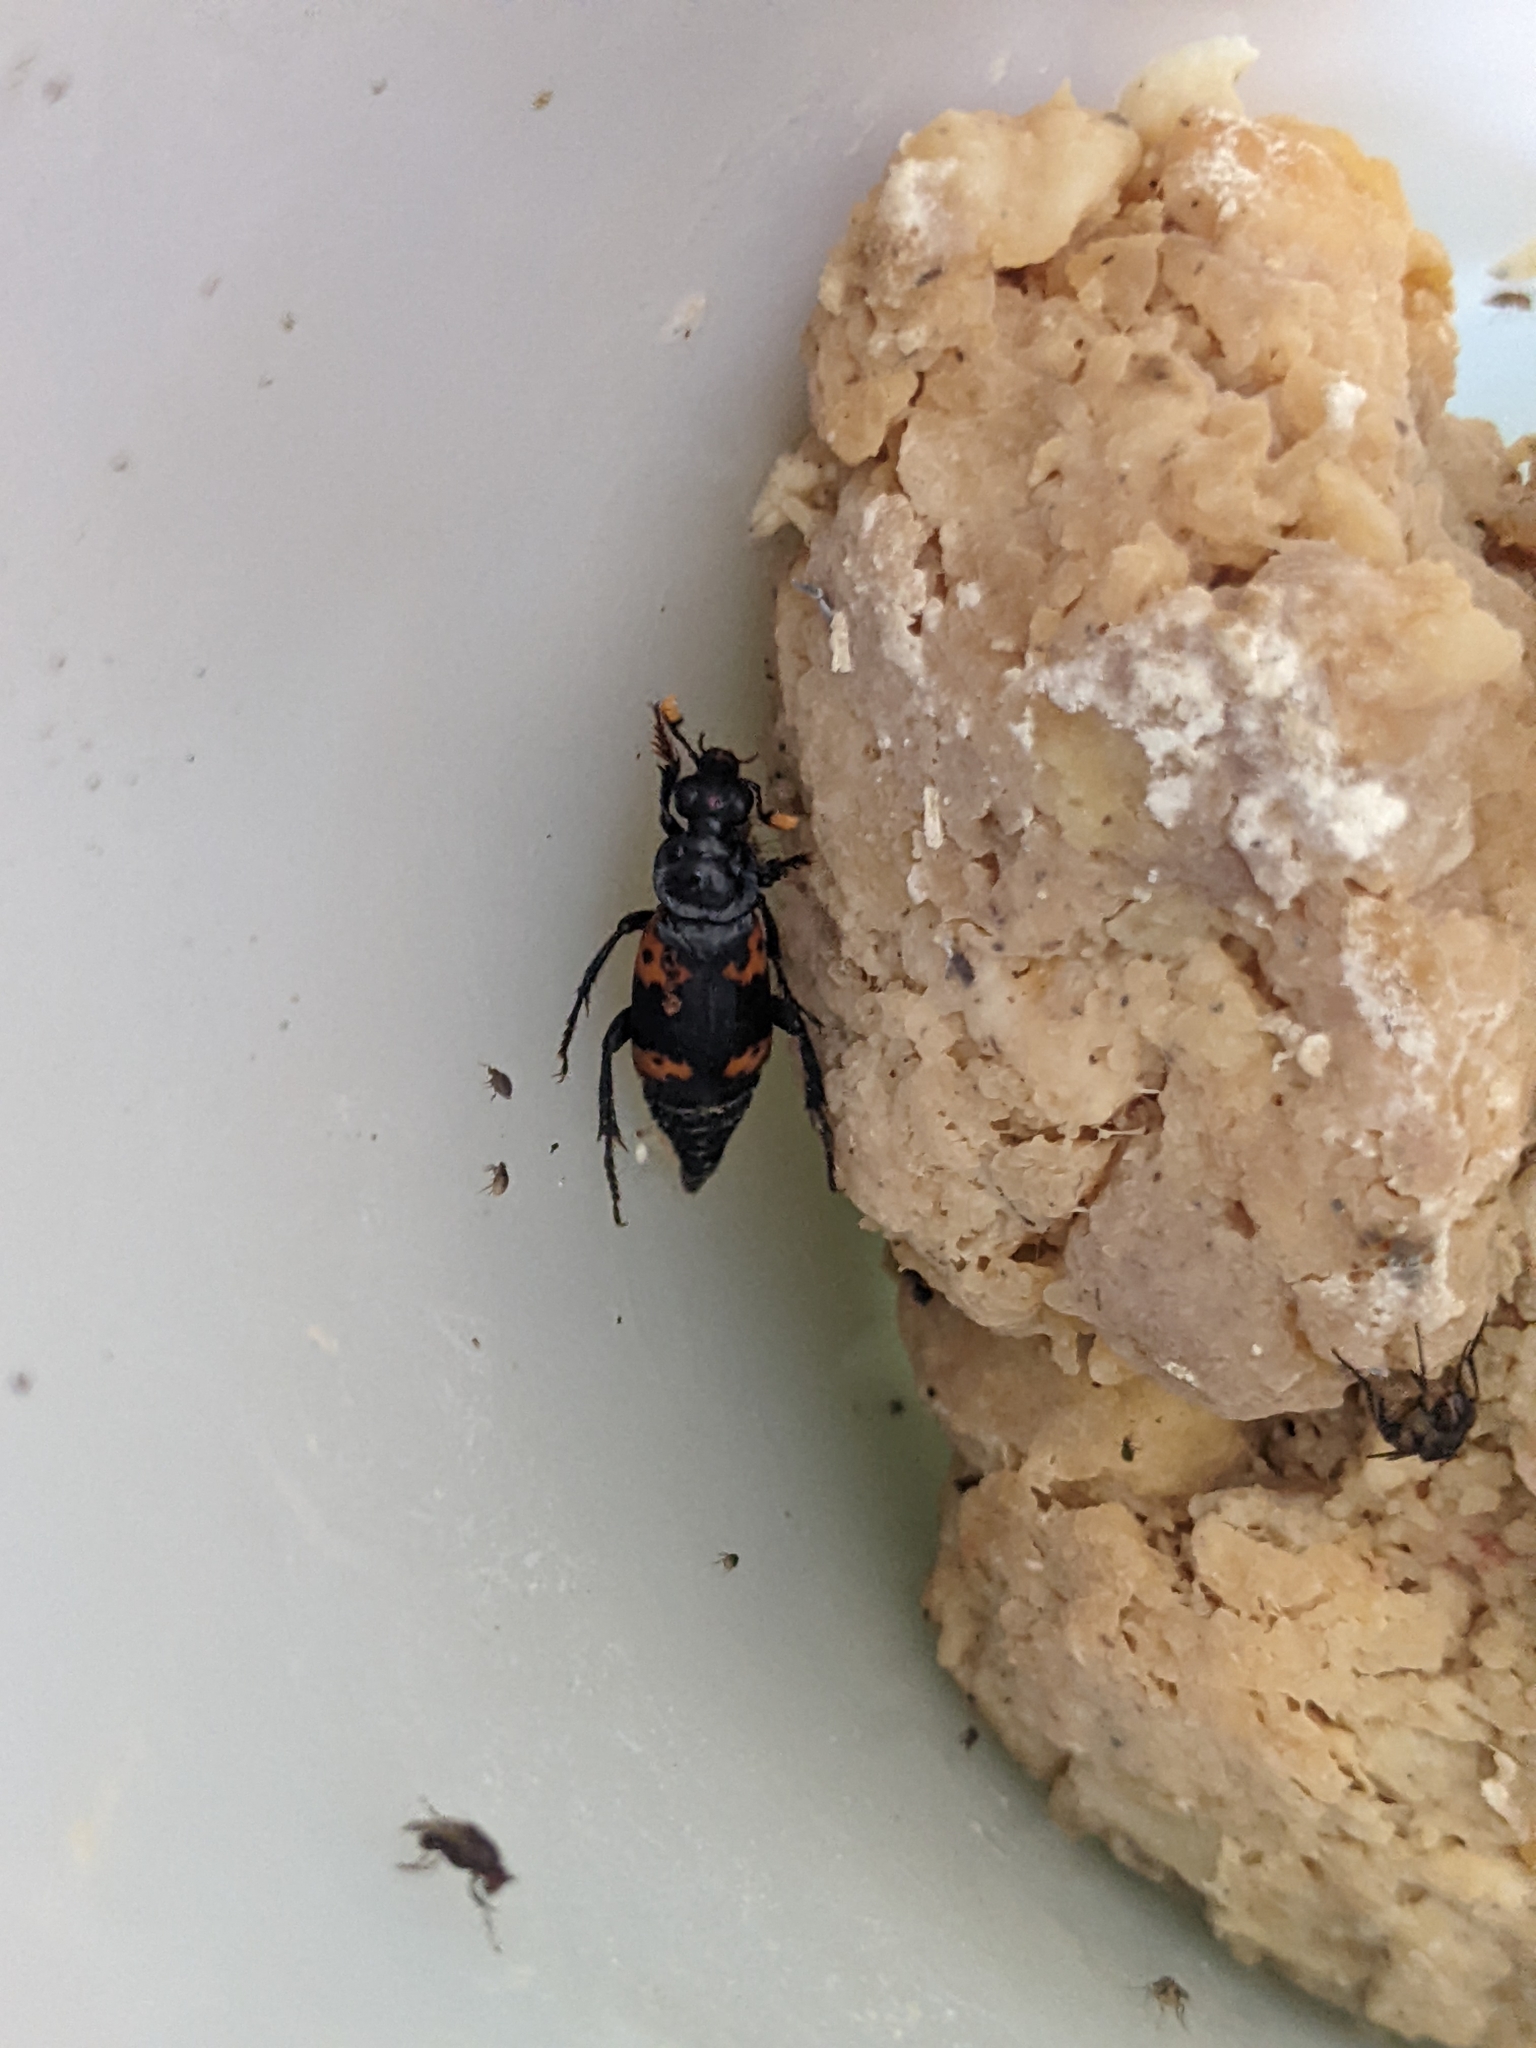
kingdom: Animalia
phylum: Arthropoda
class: Insecta
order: Coleoptera
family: Staphylinidae
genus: Nicrophorus
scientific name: Nicrophorus nepalensis
